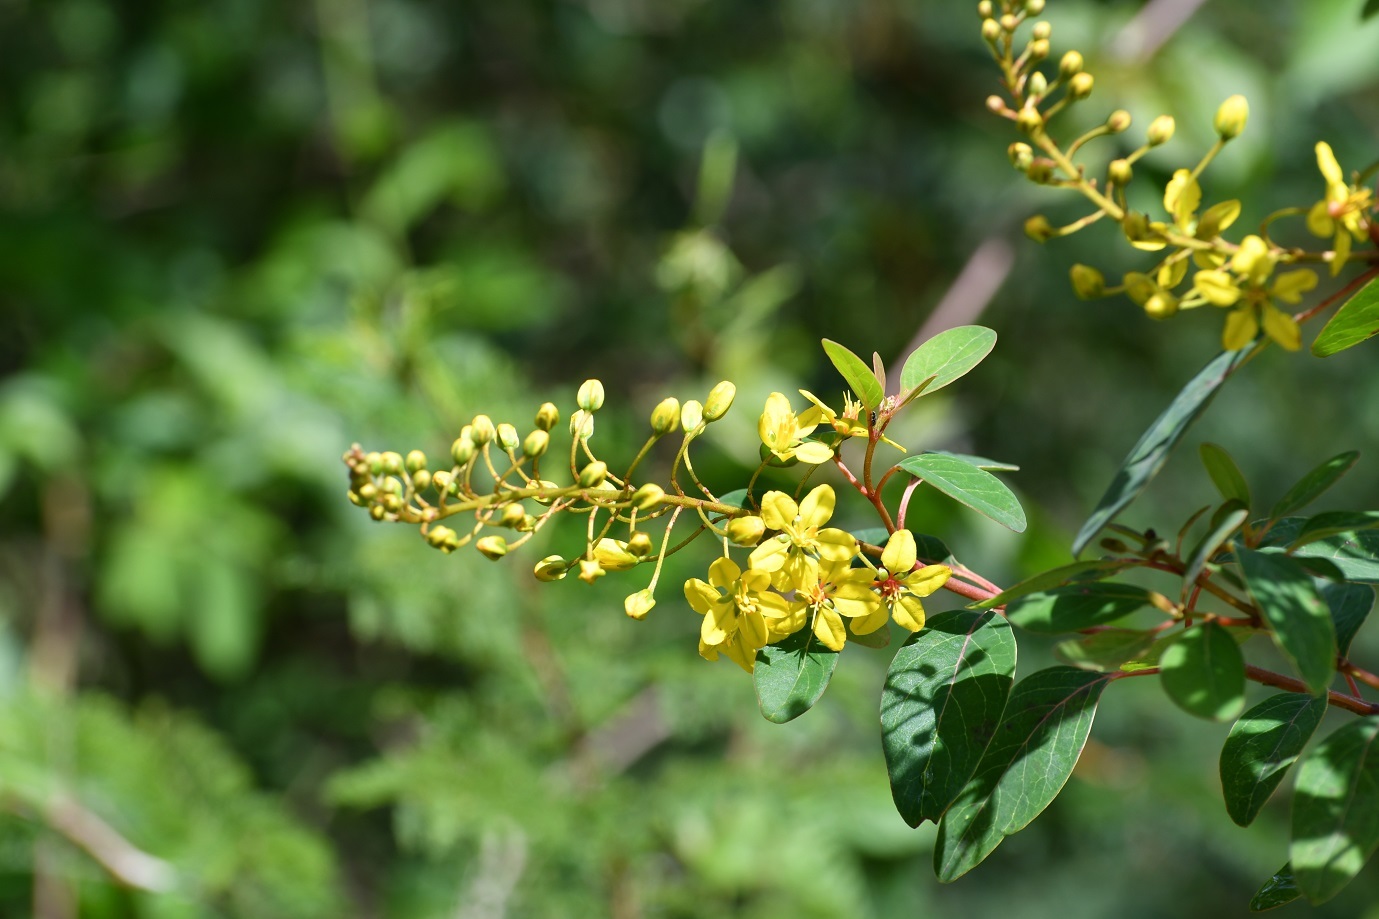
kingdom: Plantae
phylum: Tracheophyta
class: Magnoliopsida
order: Malpighiales
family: Malpighiaceae
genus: Galphimia
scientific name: Galphimia speciosa
